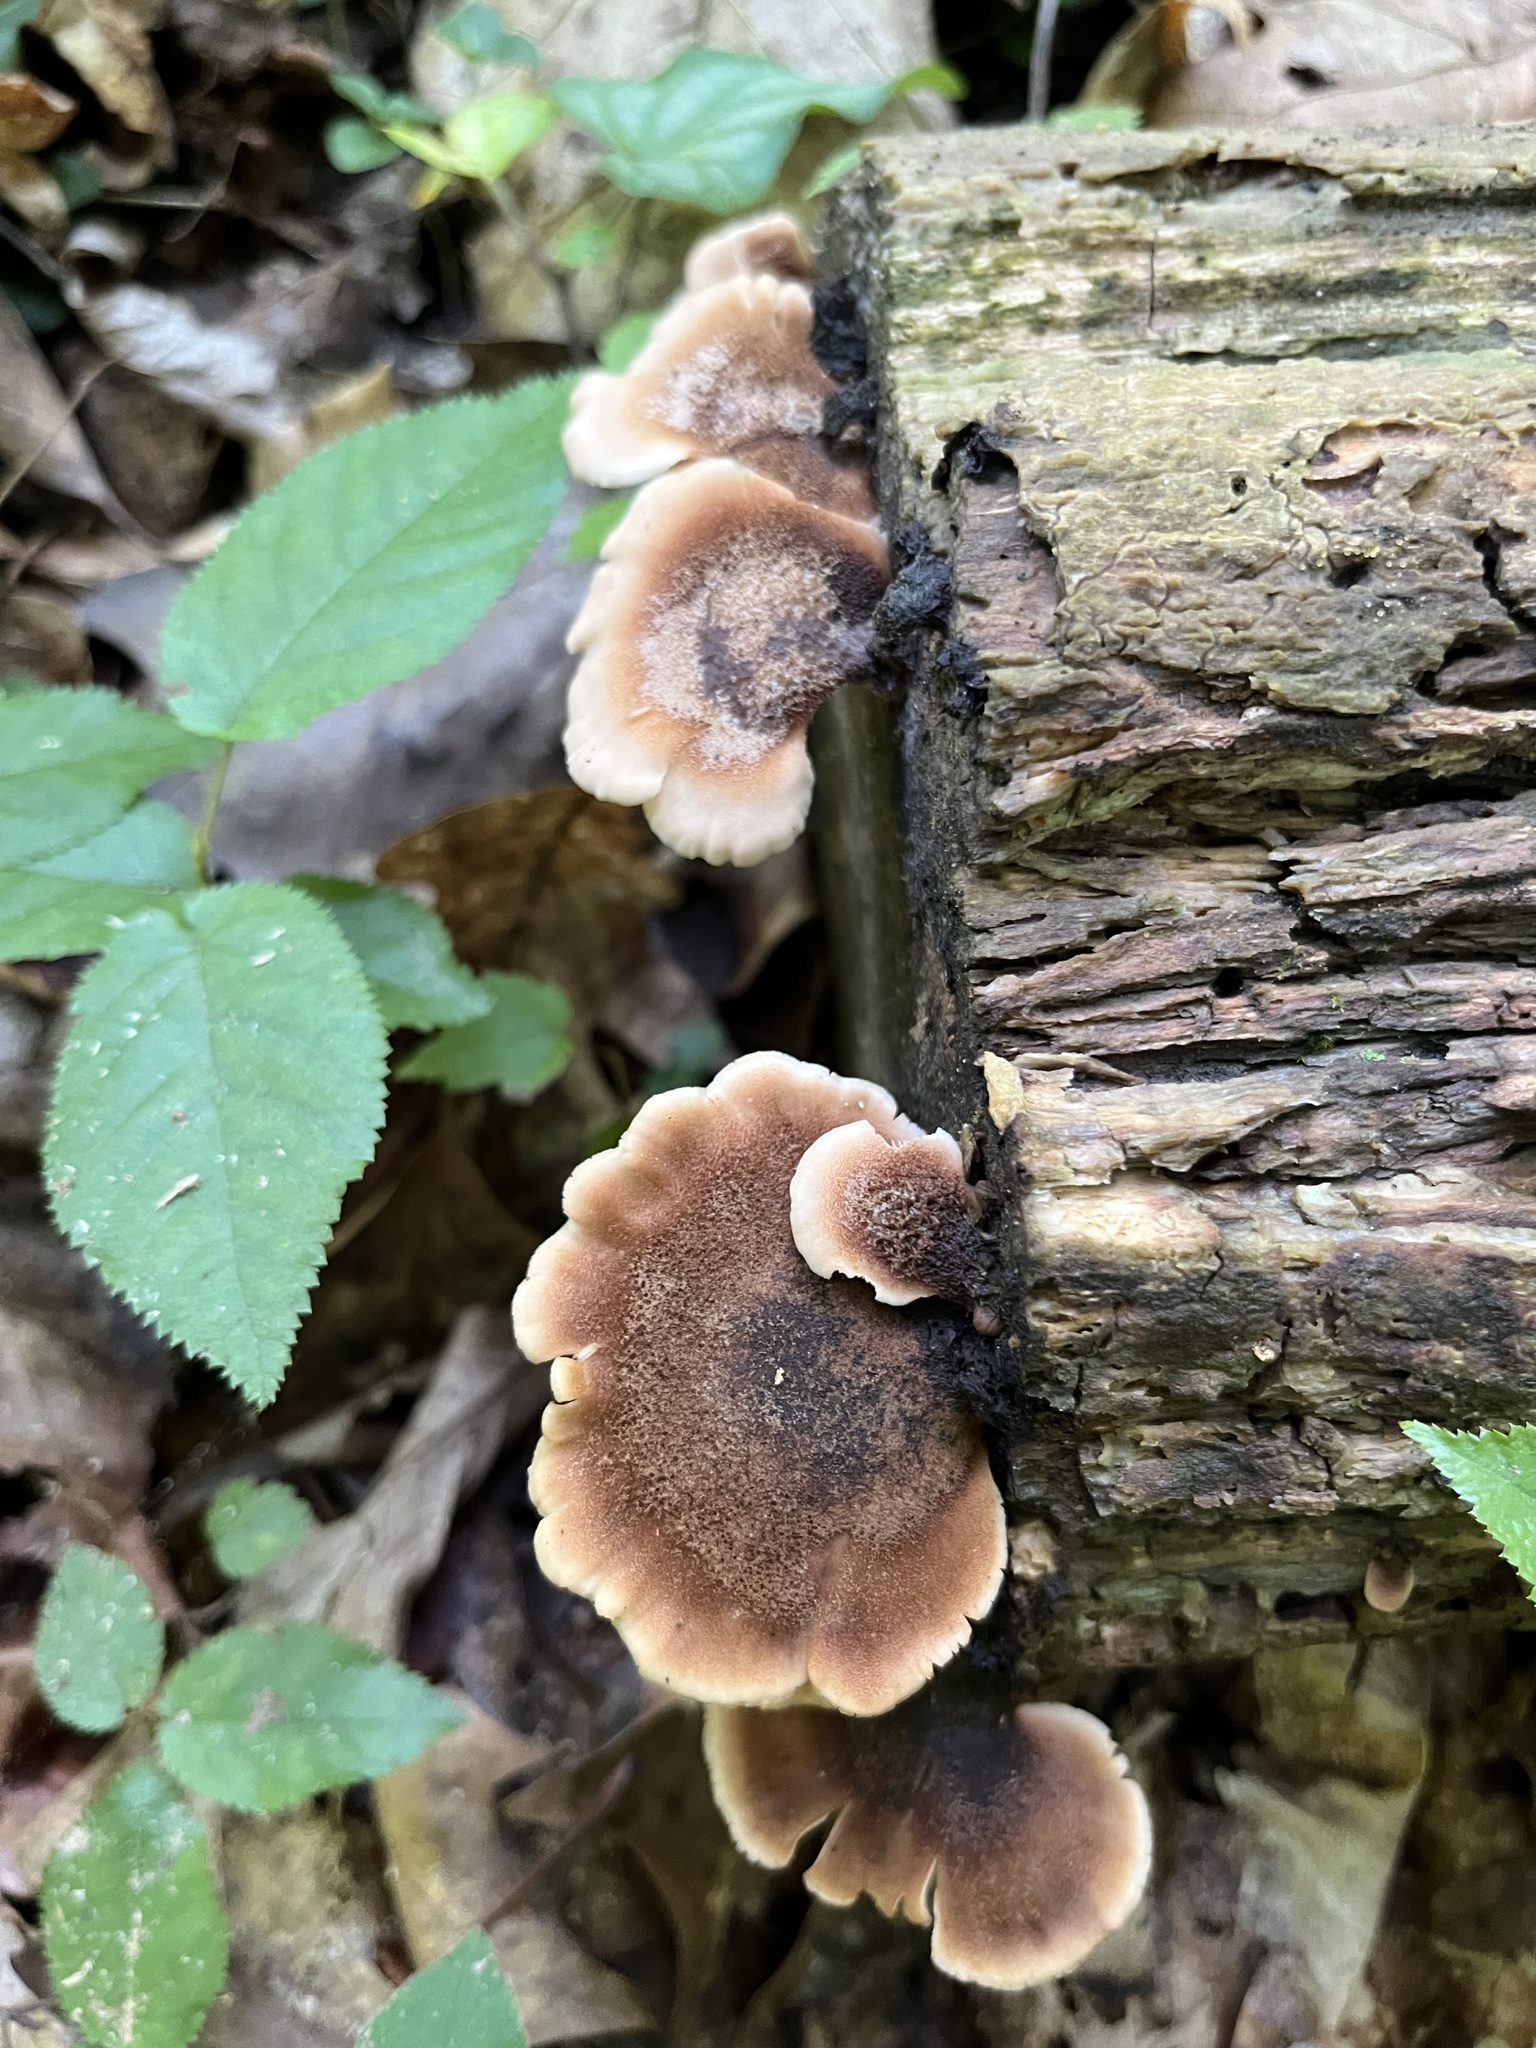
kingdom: Fungi
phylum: Basidiomycota
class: Agaricomycetes
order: Russulales
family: Auriscalpiaceae
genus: Lentinellus
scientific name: Lentinellus ursinus
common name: Bear lentinus
